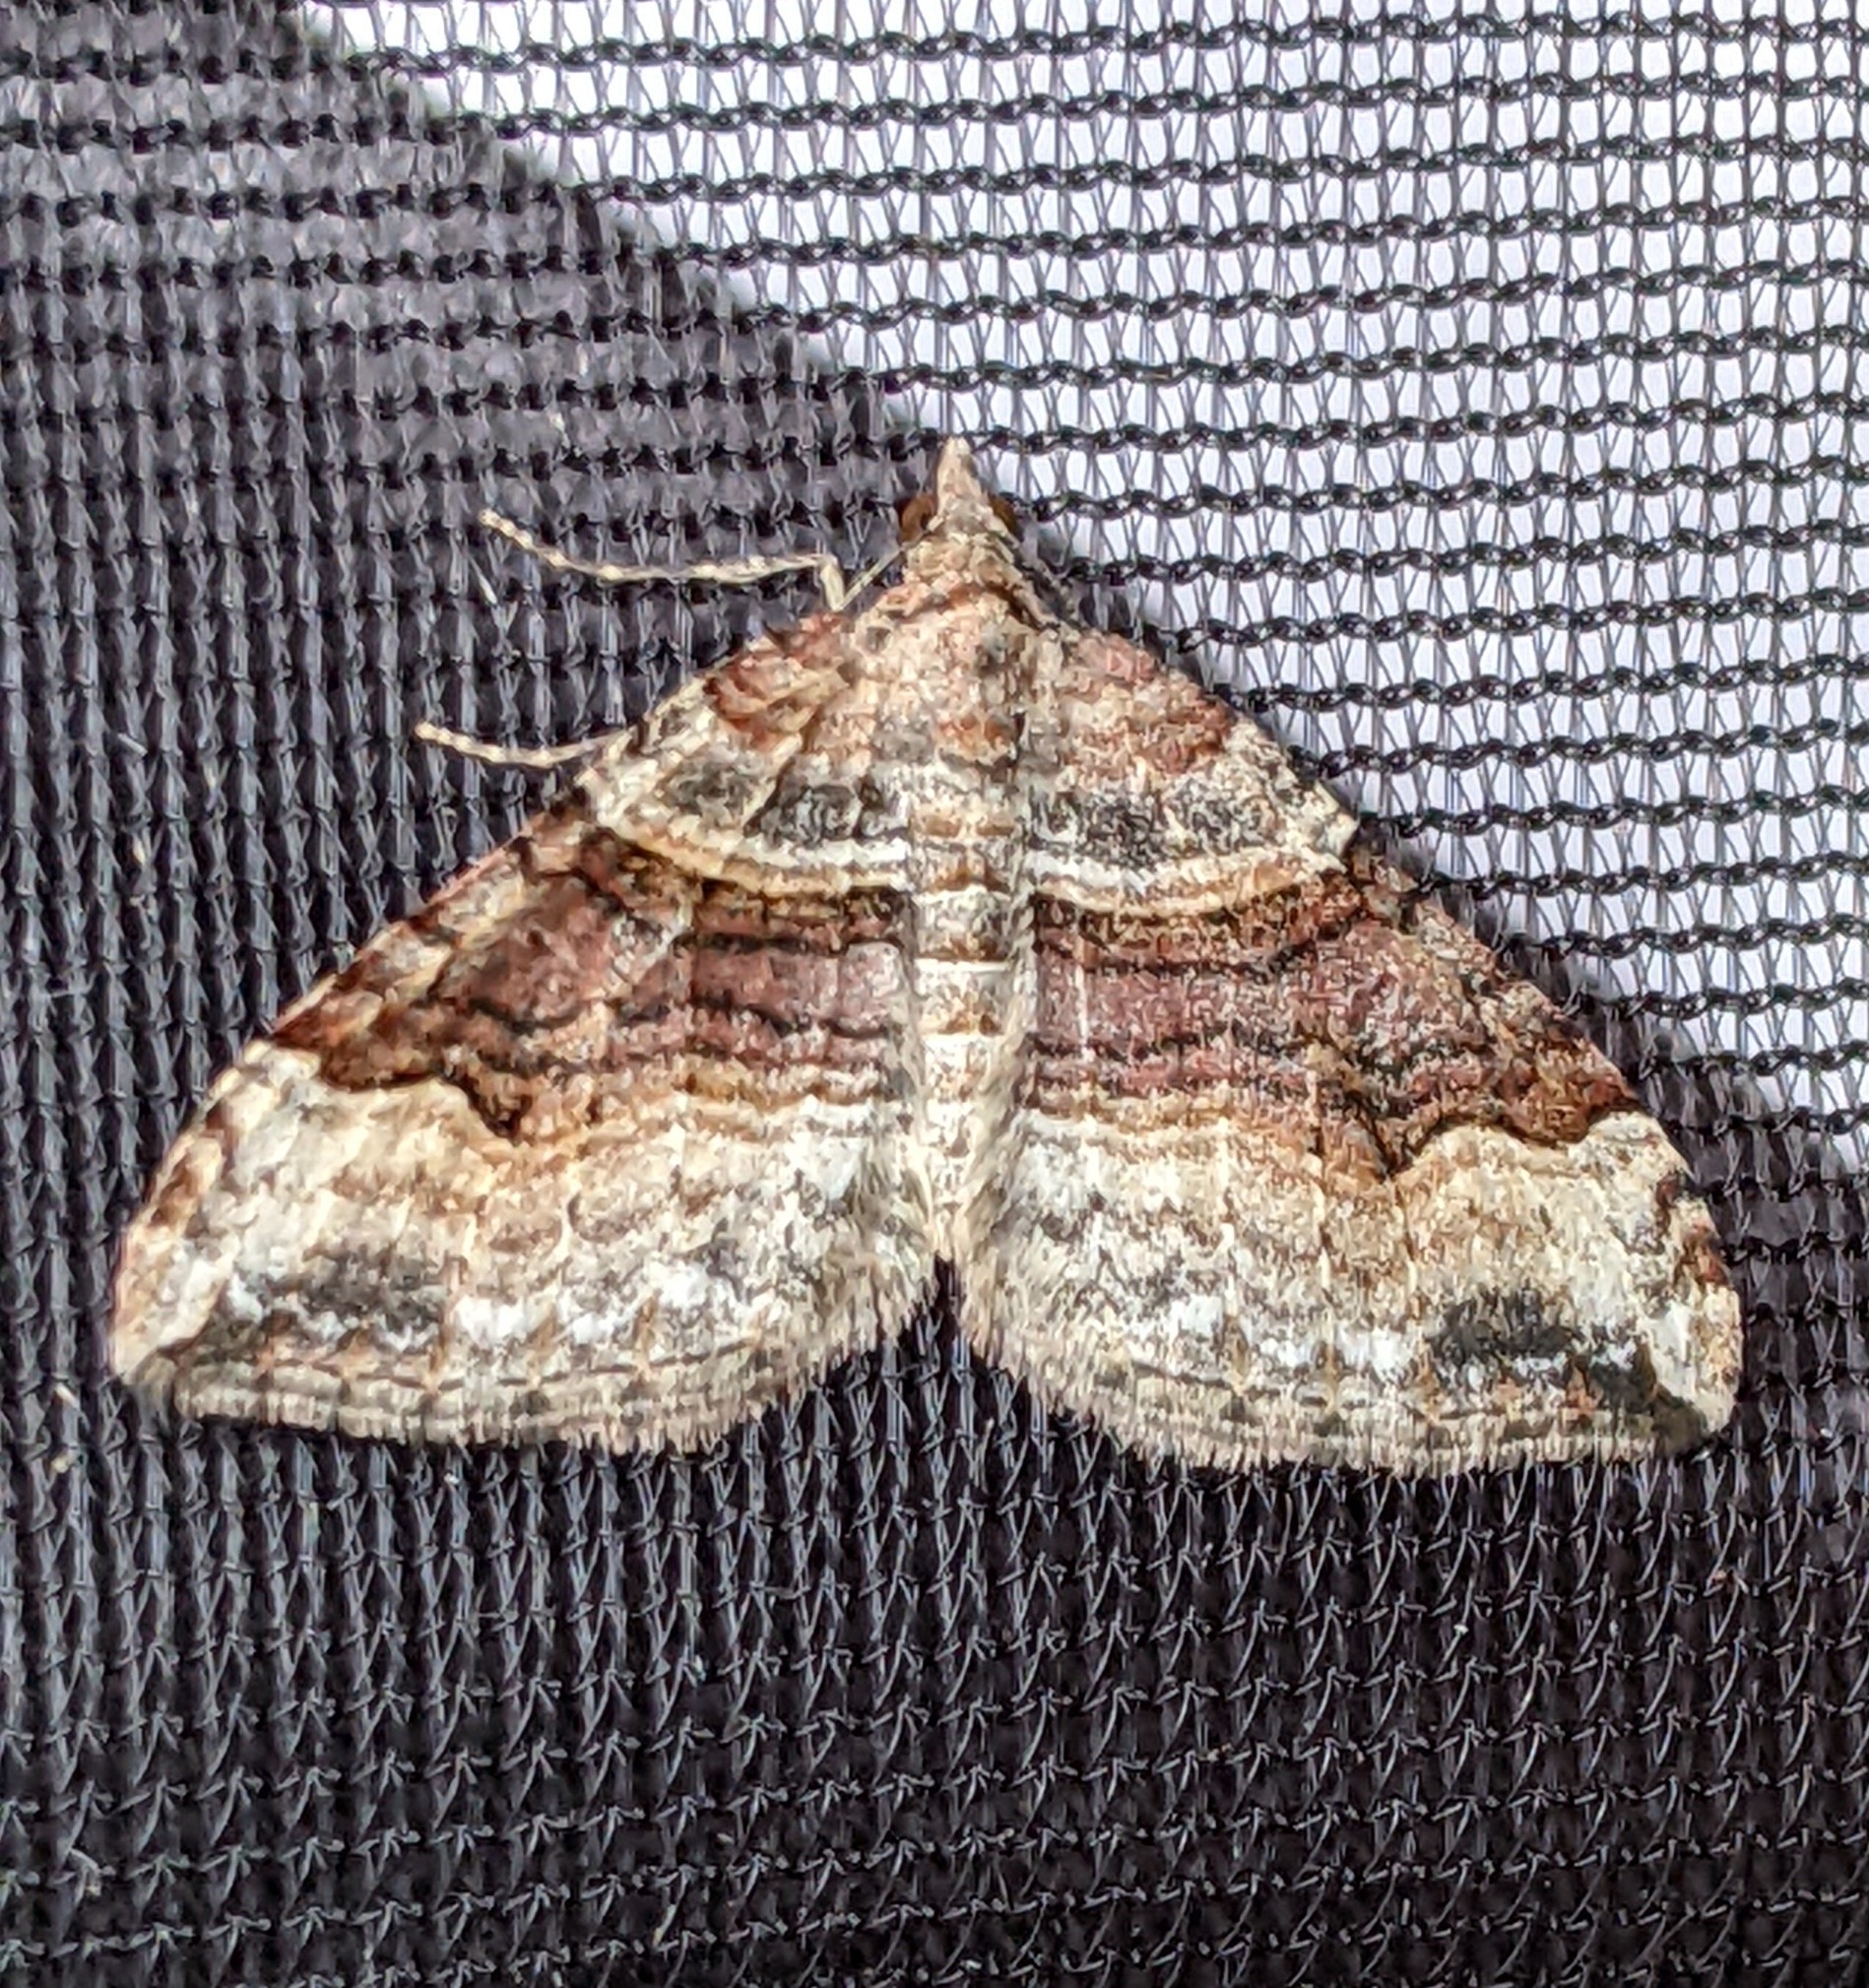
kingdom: Animalia
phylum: Arthropoda
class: Insecta
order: Lepidoptera
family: Geometridae
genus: Xanthorhoe
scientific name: Xanthorhoe defensaria
